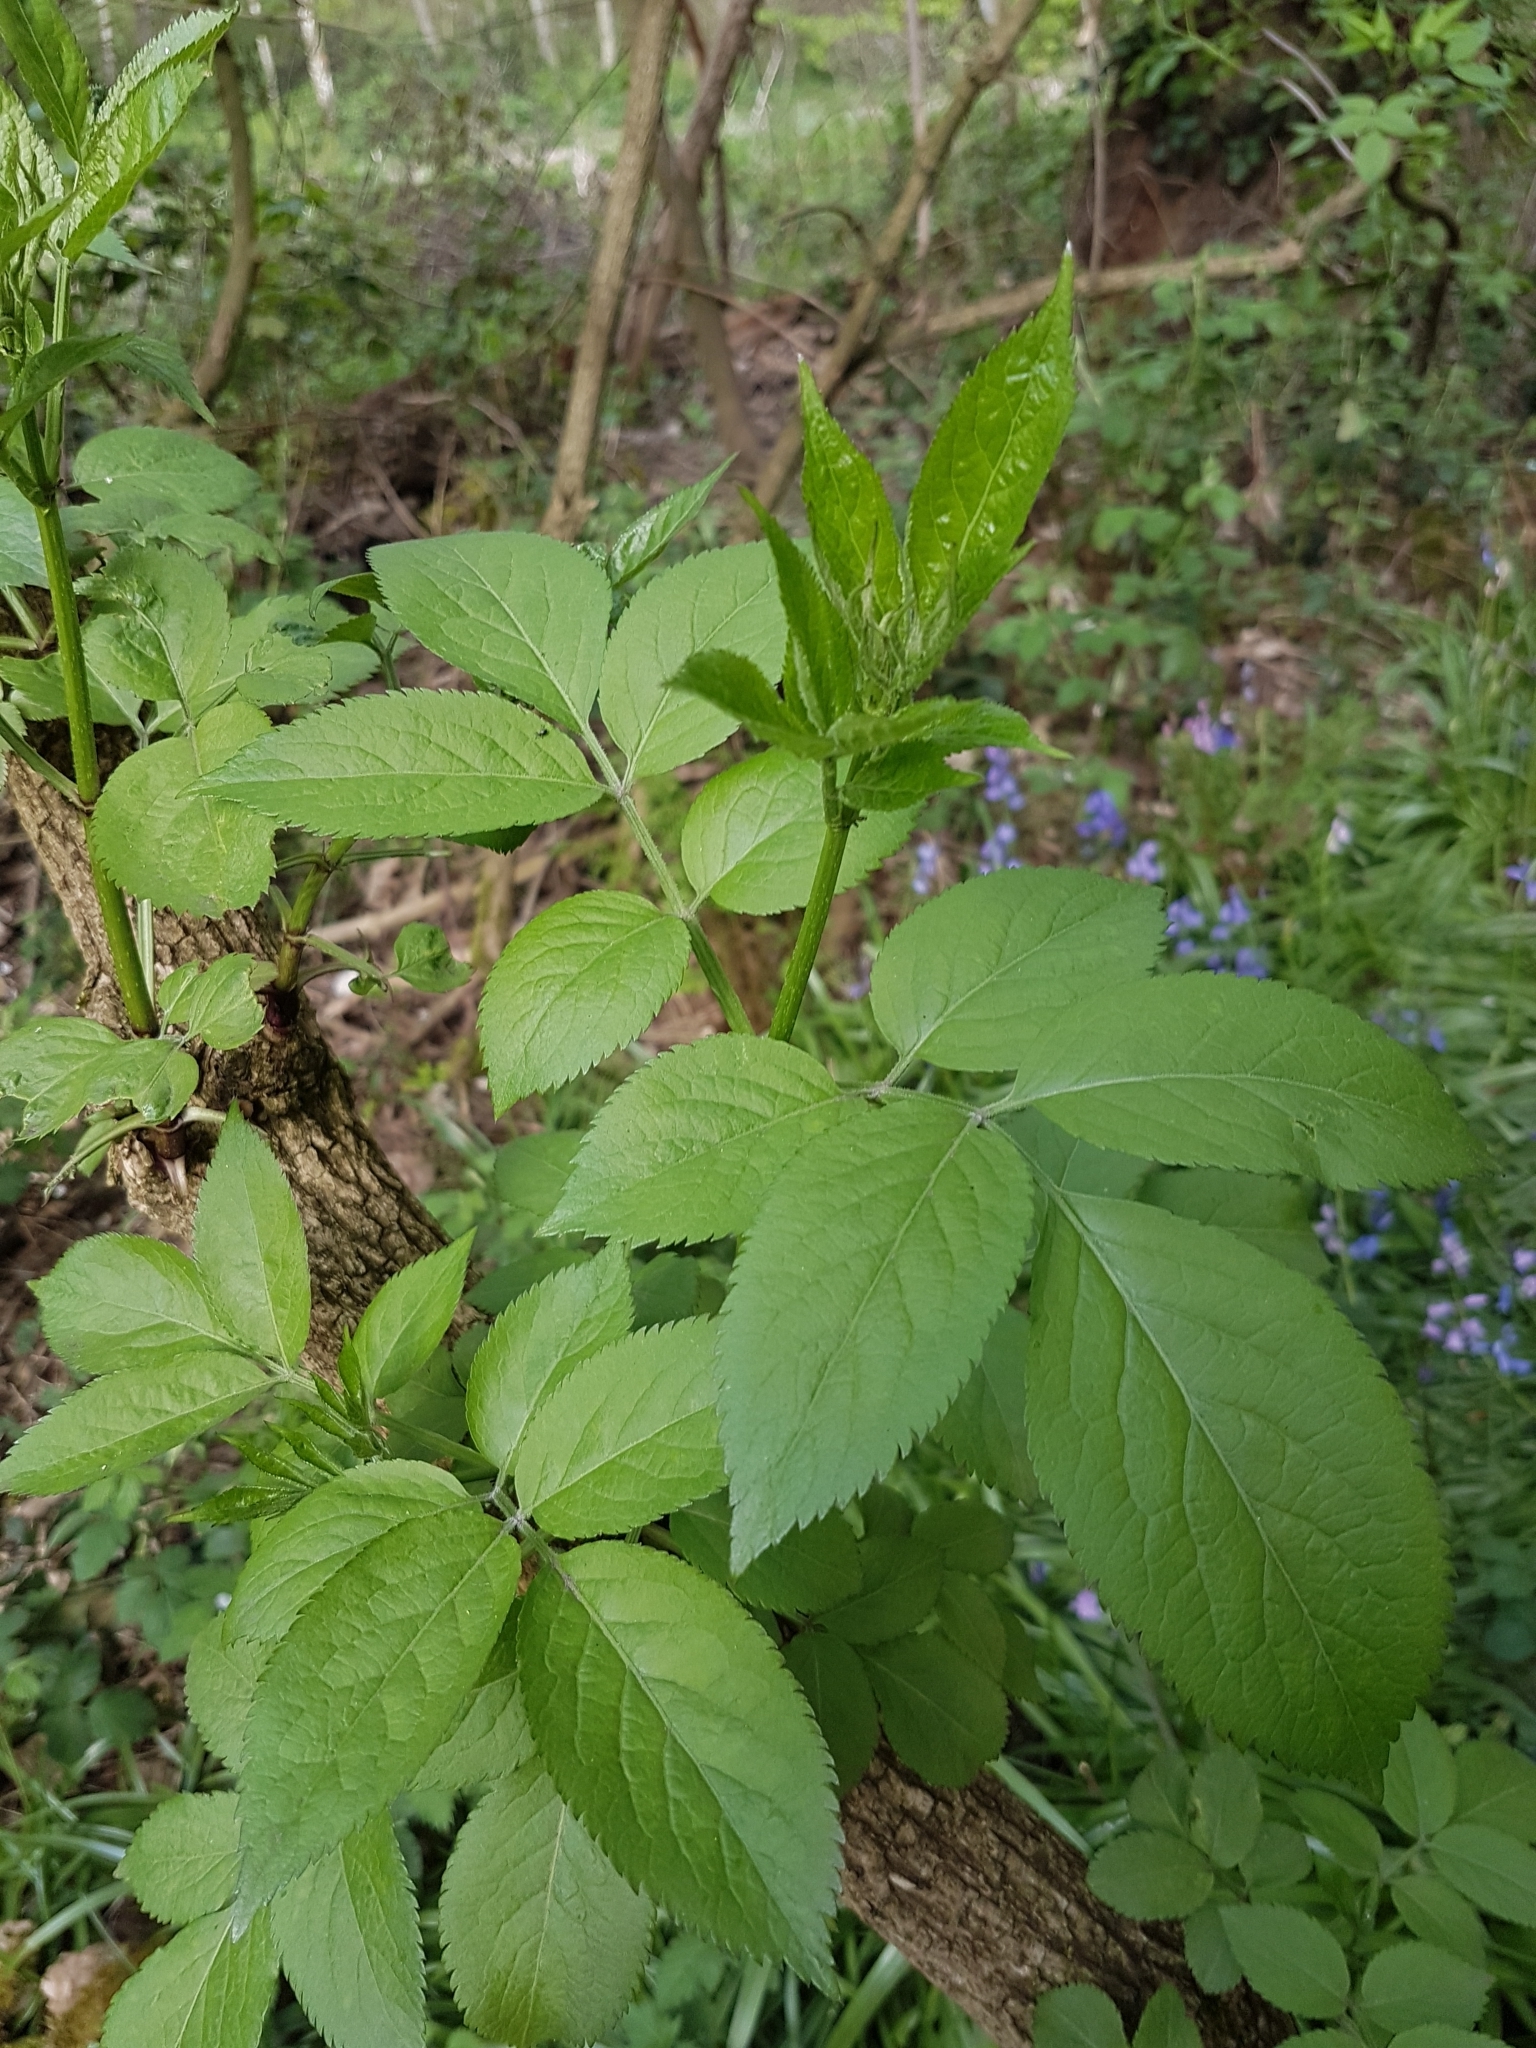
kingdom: Plantae
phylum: Tracheophyta
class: Magnoliopsida
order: Dipsacales
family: Viburnaceae
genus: Sambucus
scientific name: Sambucus nigra
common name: Elder
